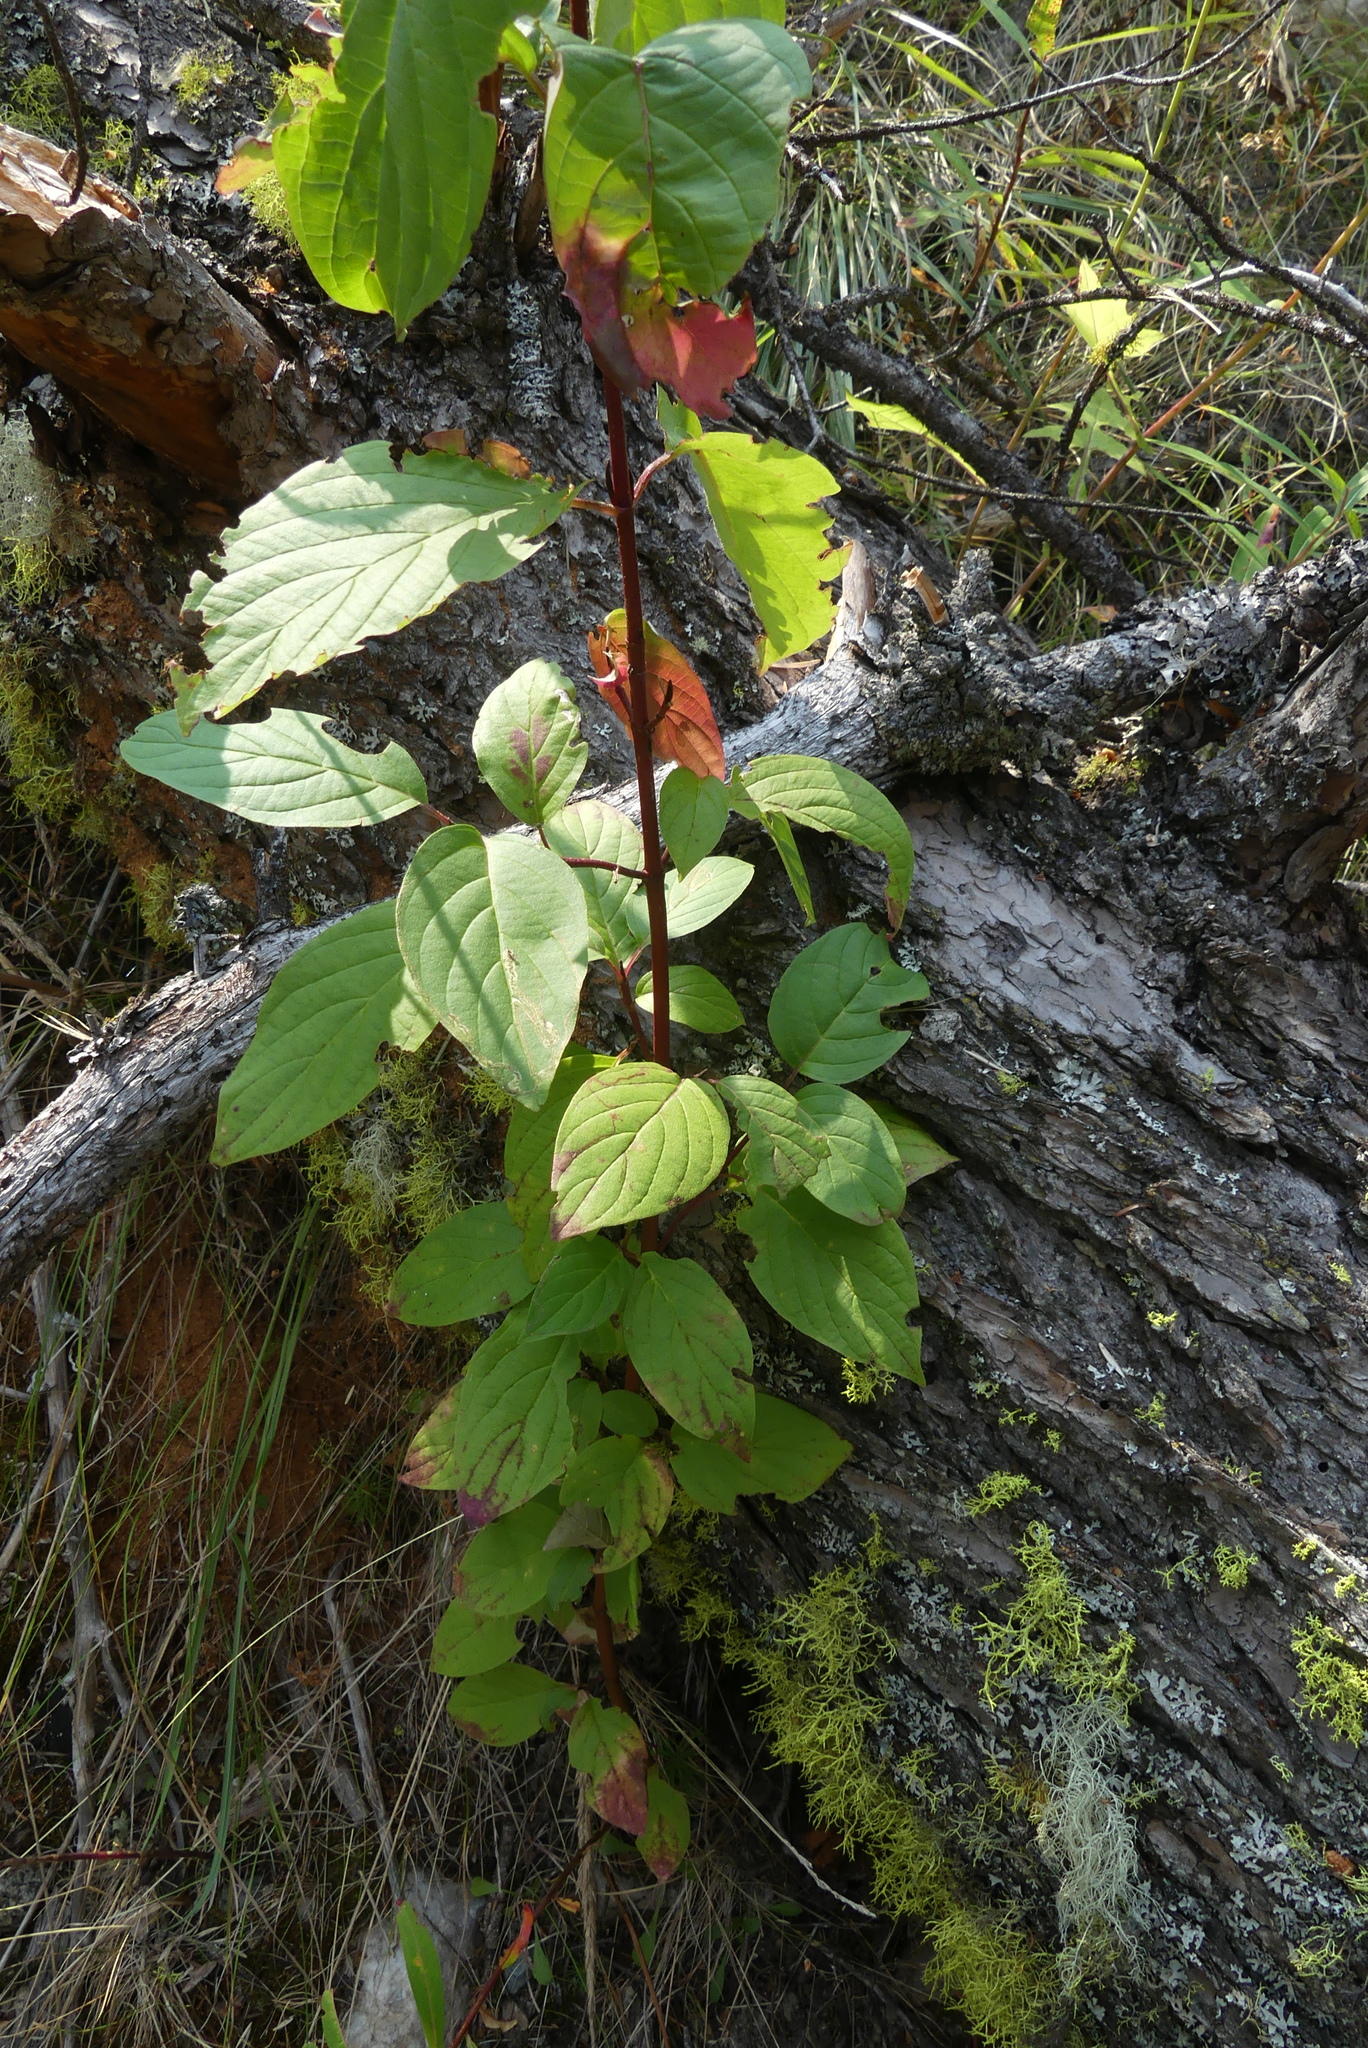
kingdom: Plantae
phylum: Tracheophyta
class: Magnoliopsida
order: Cornales
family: Cornaceae
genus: Cornus
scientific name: Cornus sericea
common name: Red-osier dogwood
